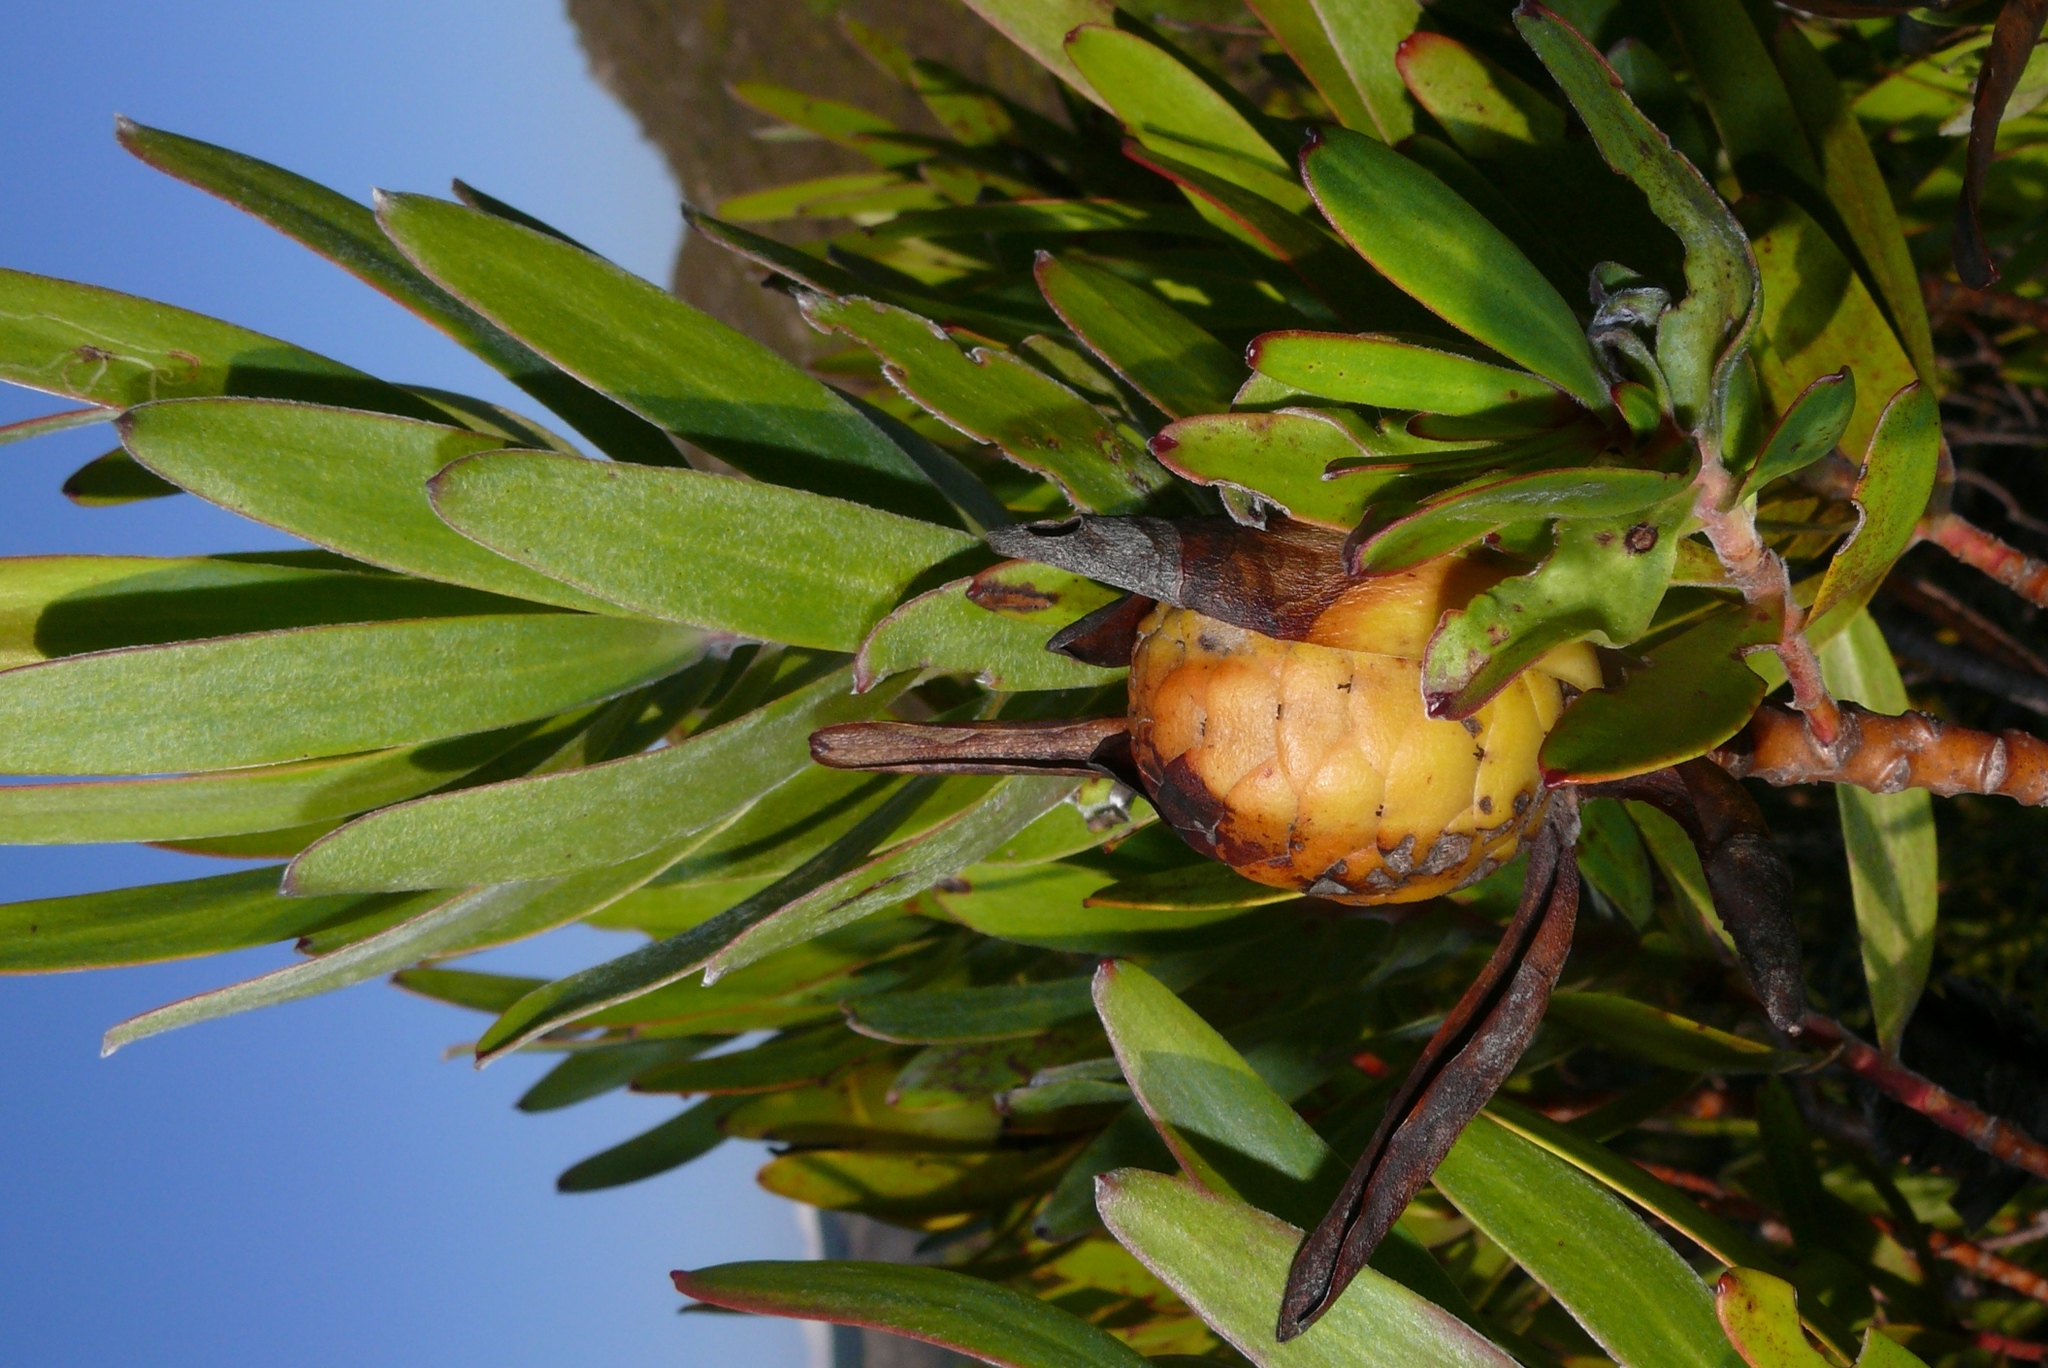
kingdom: Plantae
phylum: Tracheophyta
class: Magnoliopsida
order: Proteales
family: Proteaceae
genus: Leucadendron
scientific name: Leucadendron laureolum
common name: Golden sunshinebush
